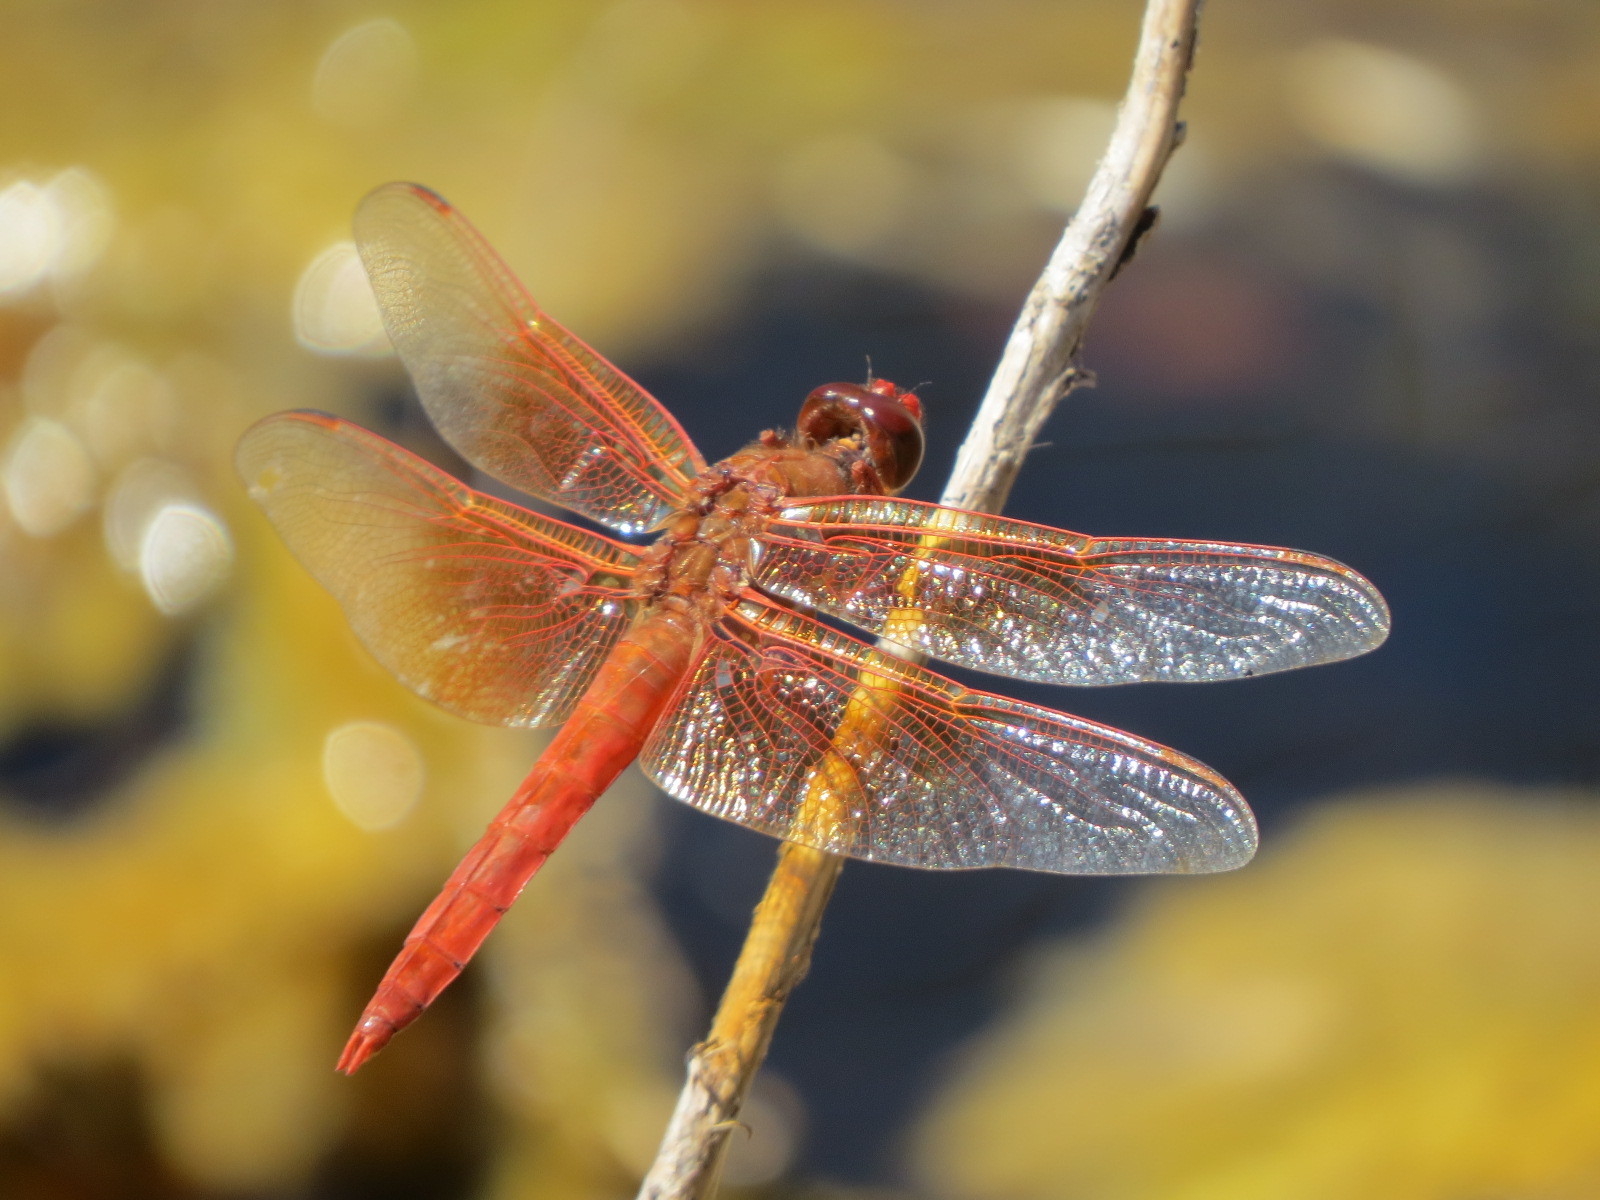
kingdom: Animalia
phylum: Arthropoda
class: Insecta
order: Odonata
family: Libellulidae
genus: Libellula
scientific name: Libellula saturata
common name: Flame skimmer
